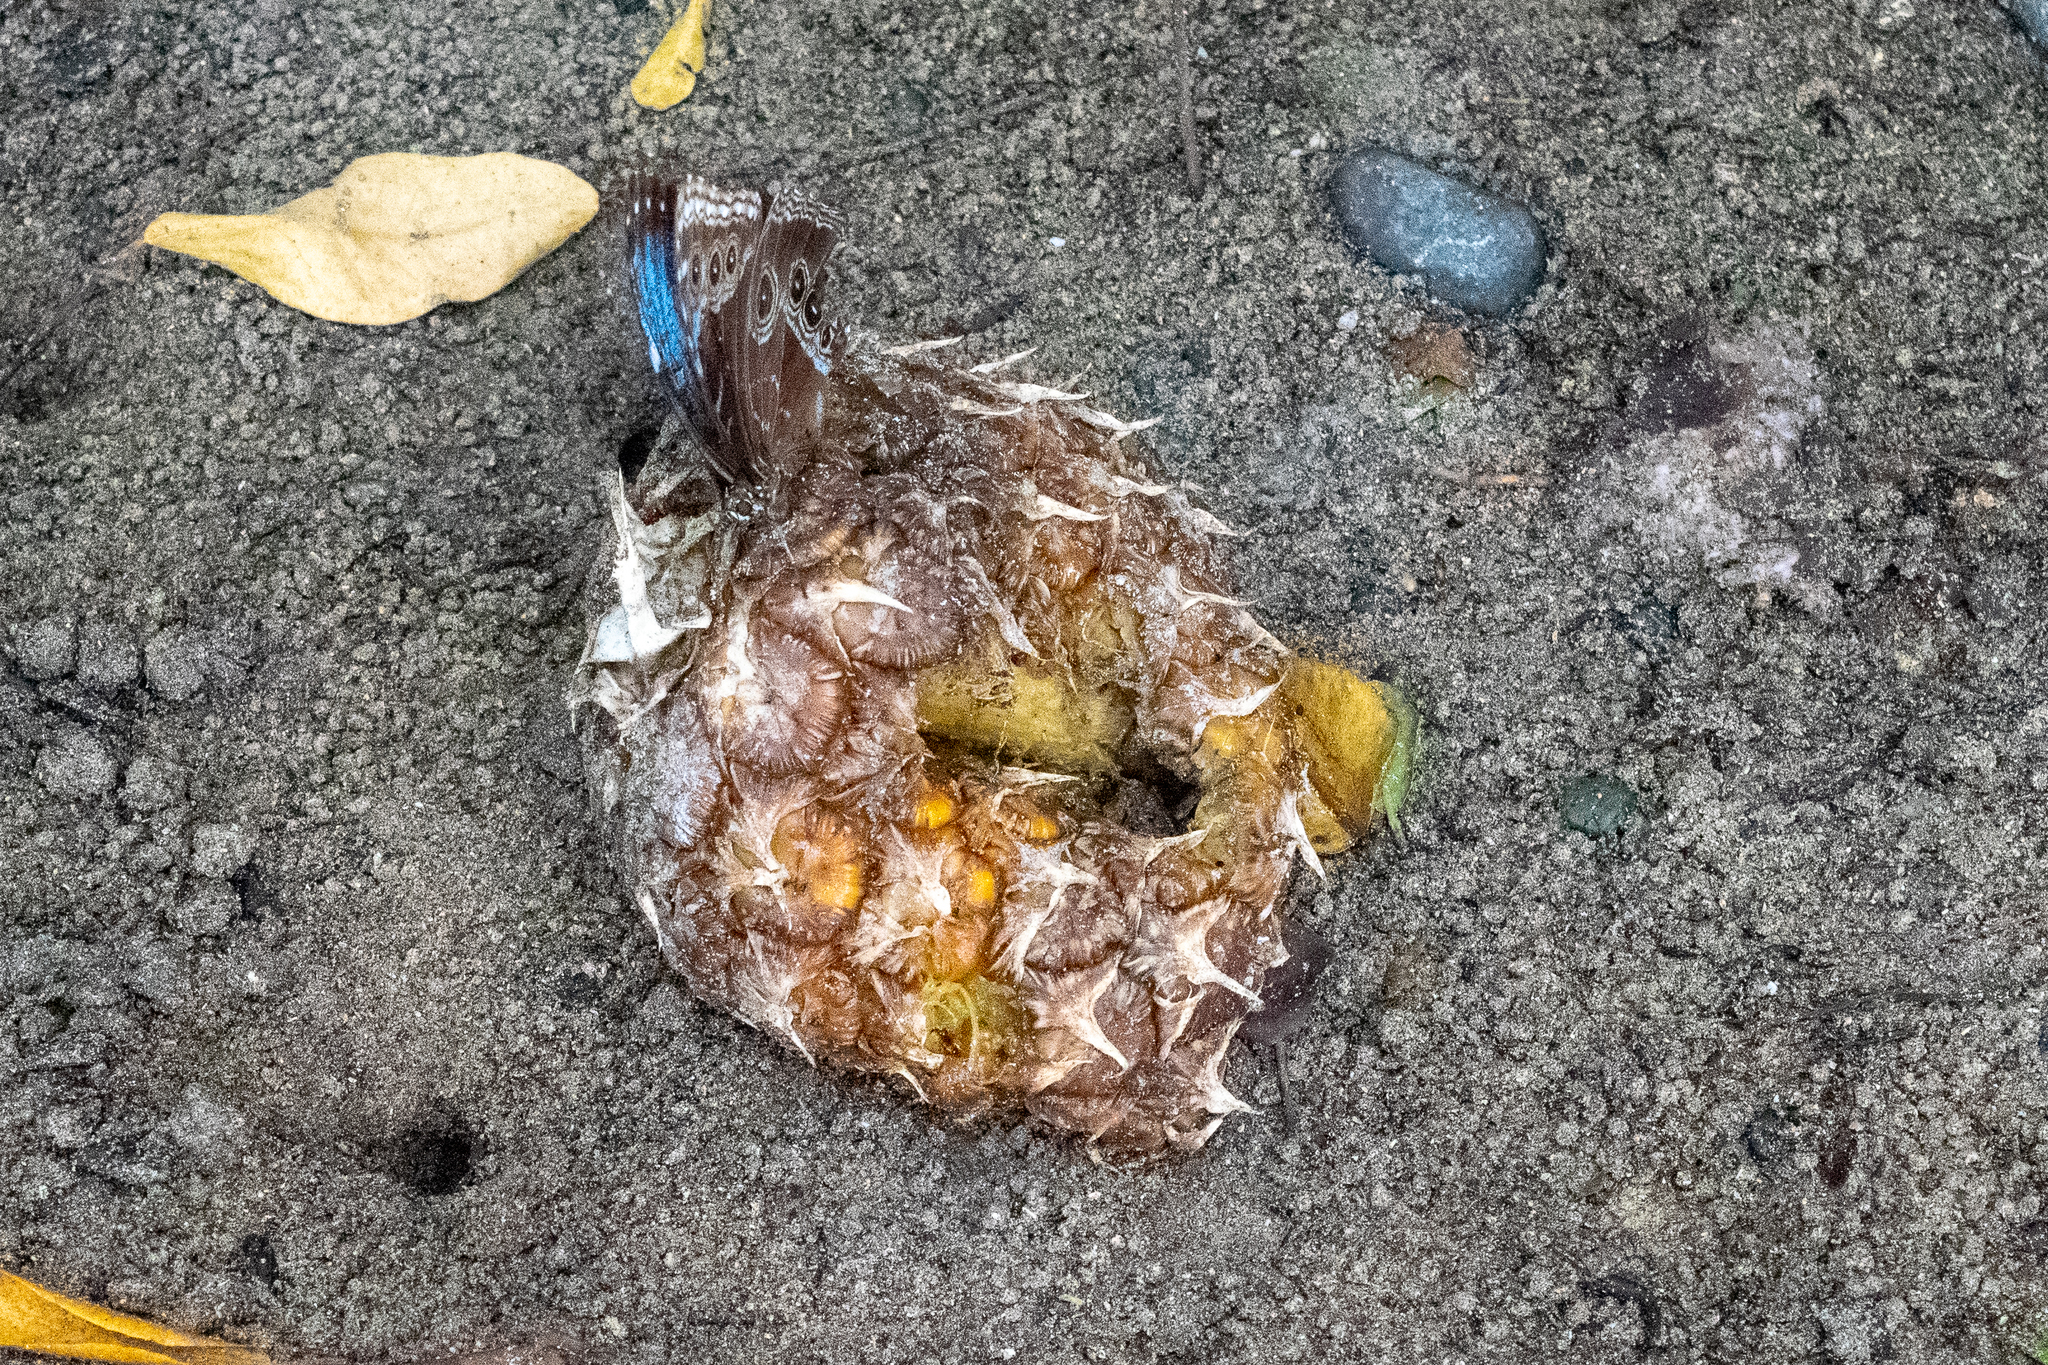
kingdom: Animalia
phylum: Arthropoda
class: Insecta
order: Lepidoptera
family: Nymphalidae
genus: Morpho
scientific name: Morpho helenor
